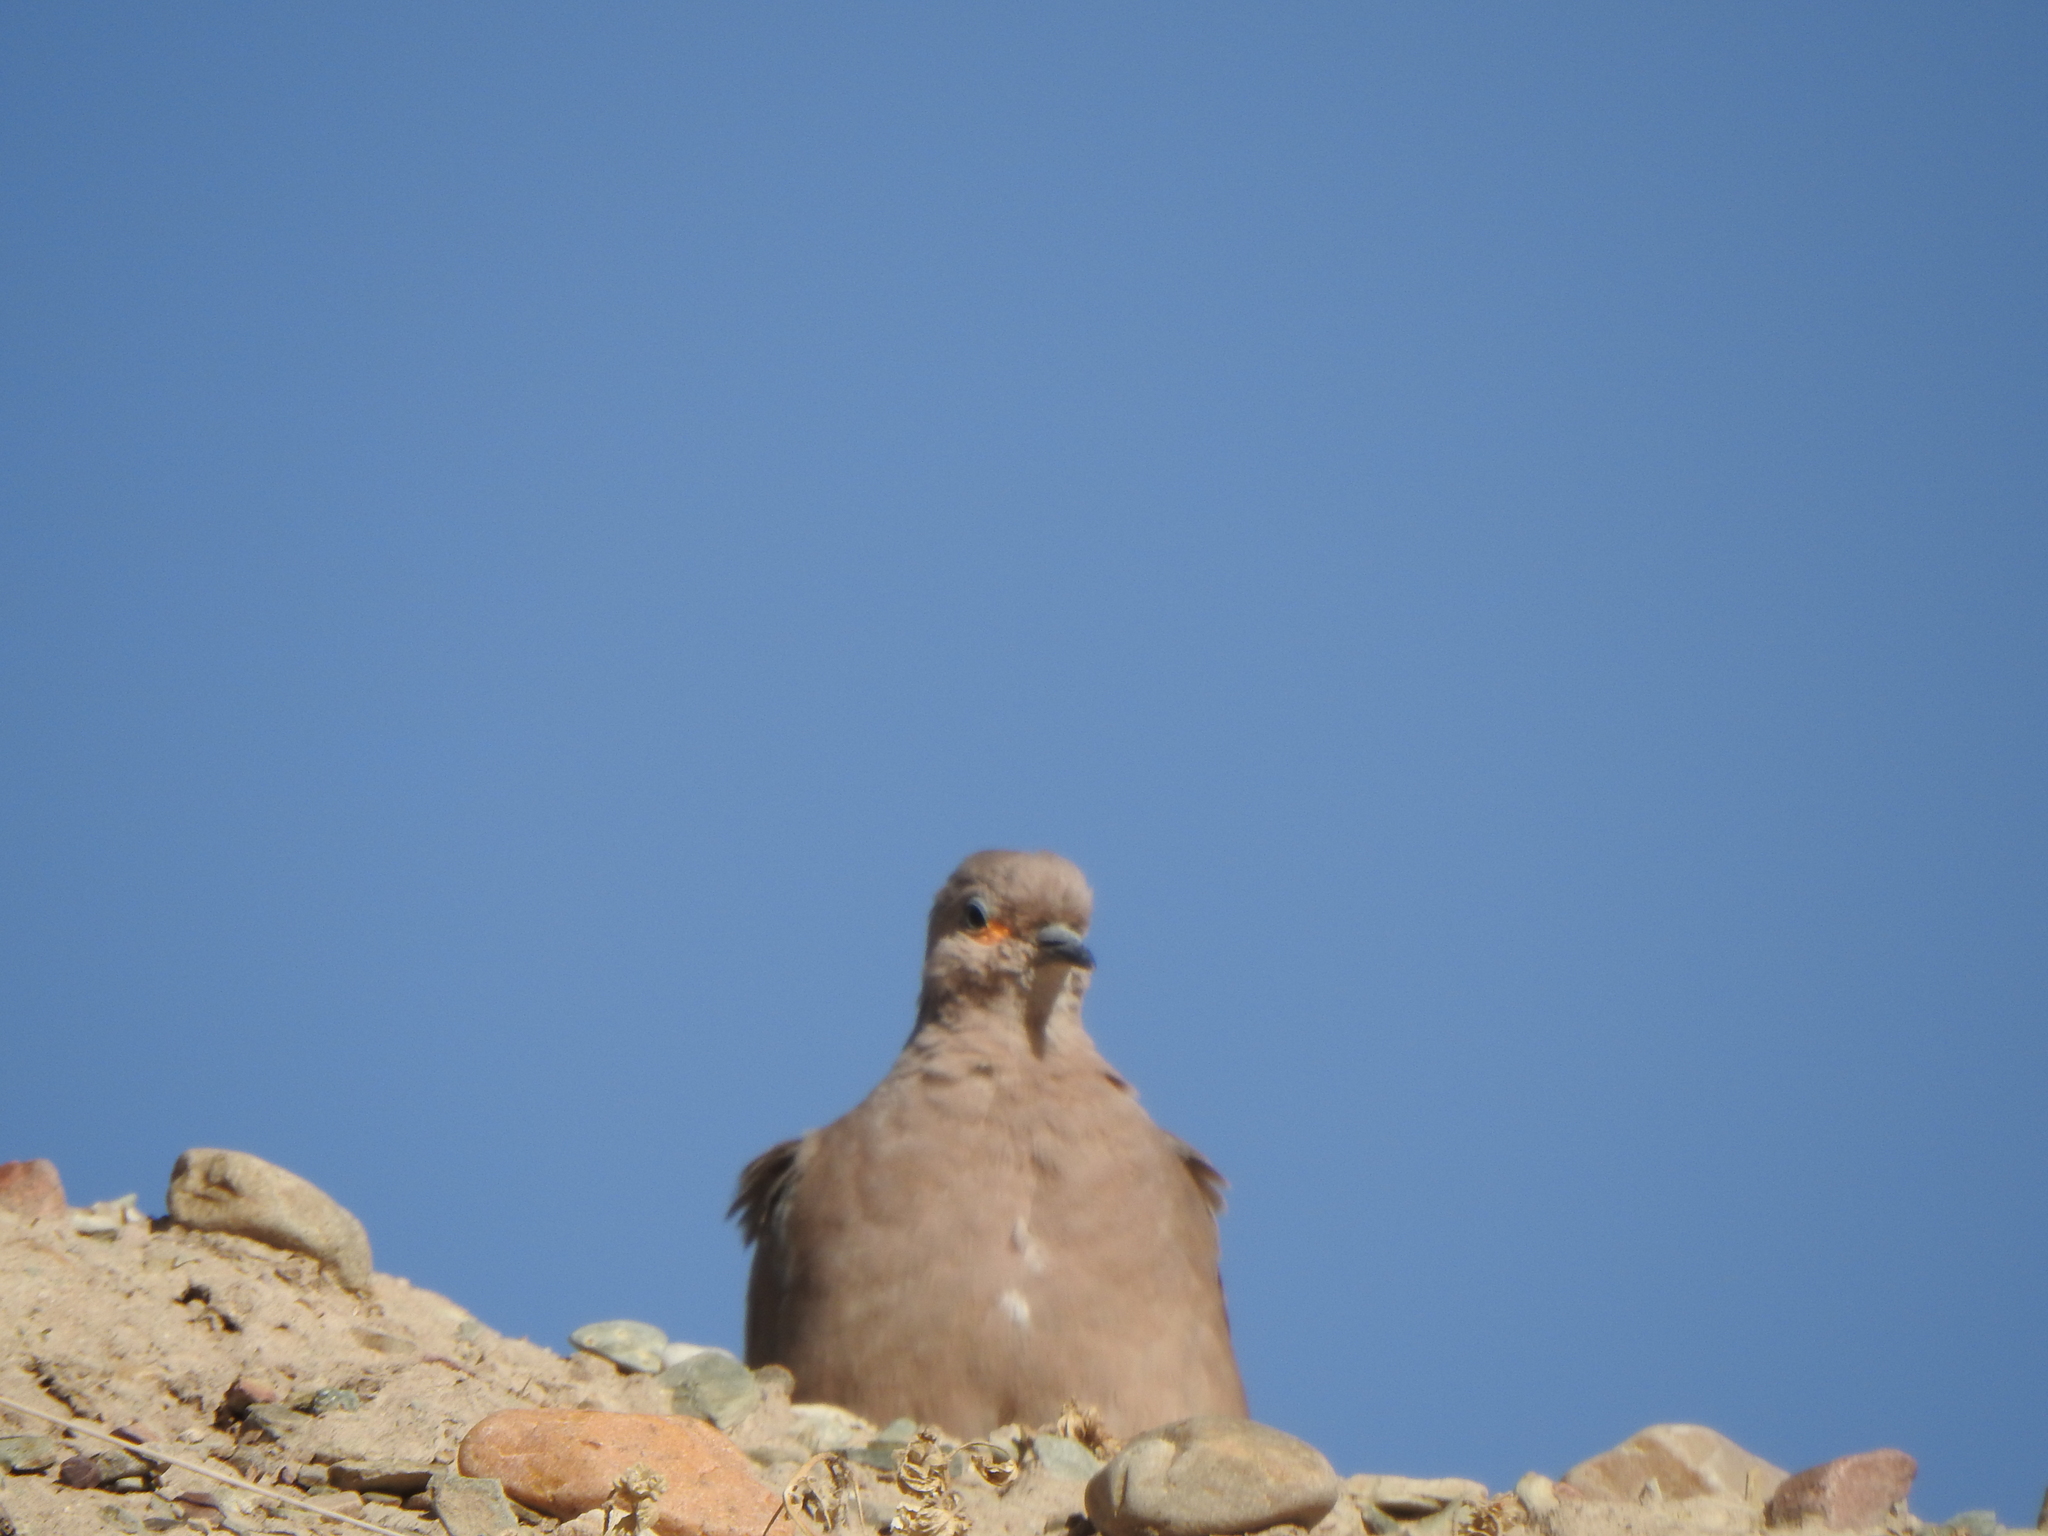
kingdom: Animalia
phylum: Chordata
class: Aves
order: Columbiformes
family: Columbidae
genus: Metriopelia
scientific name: Metriopelia melanoptera
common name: Black-winged ground dove
